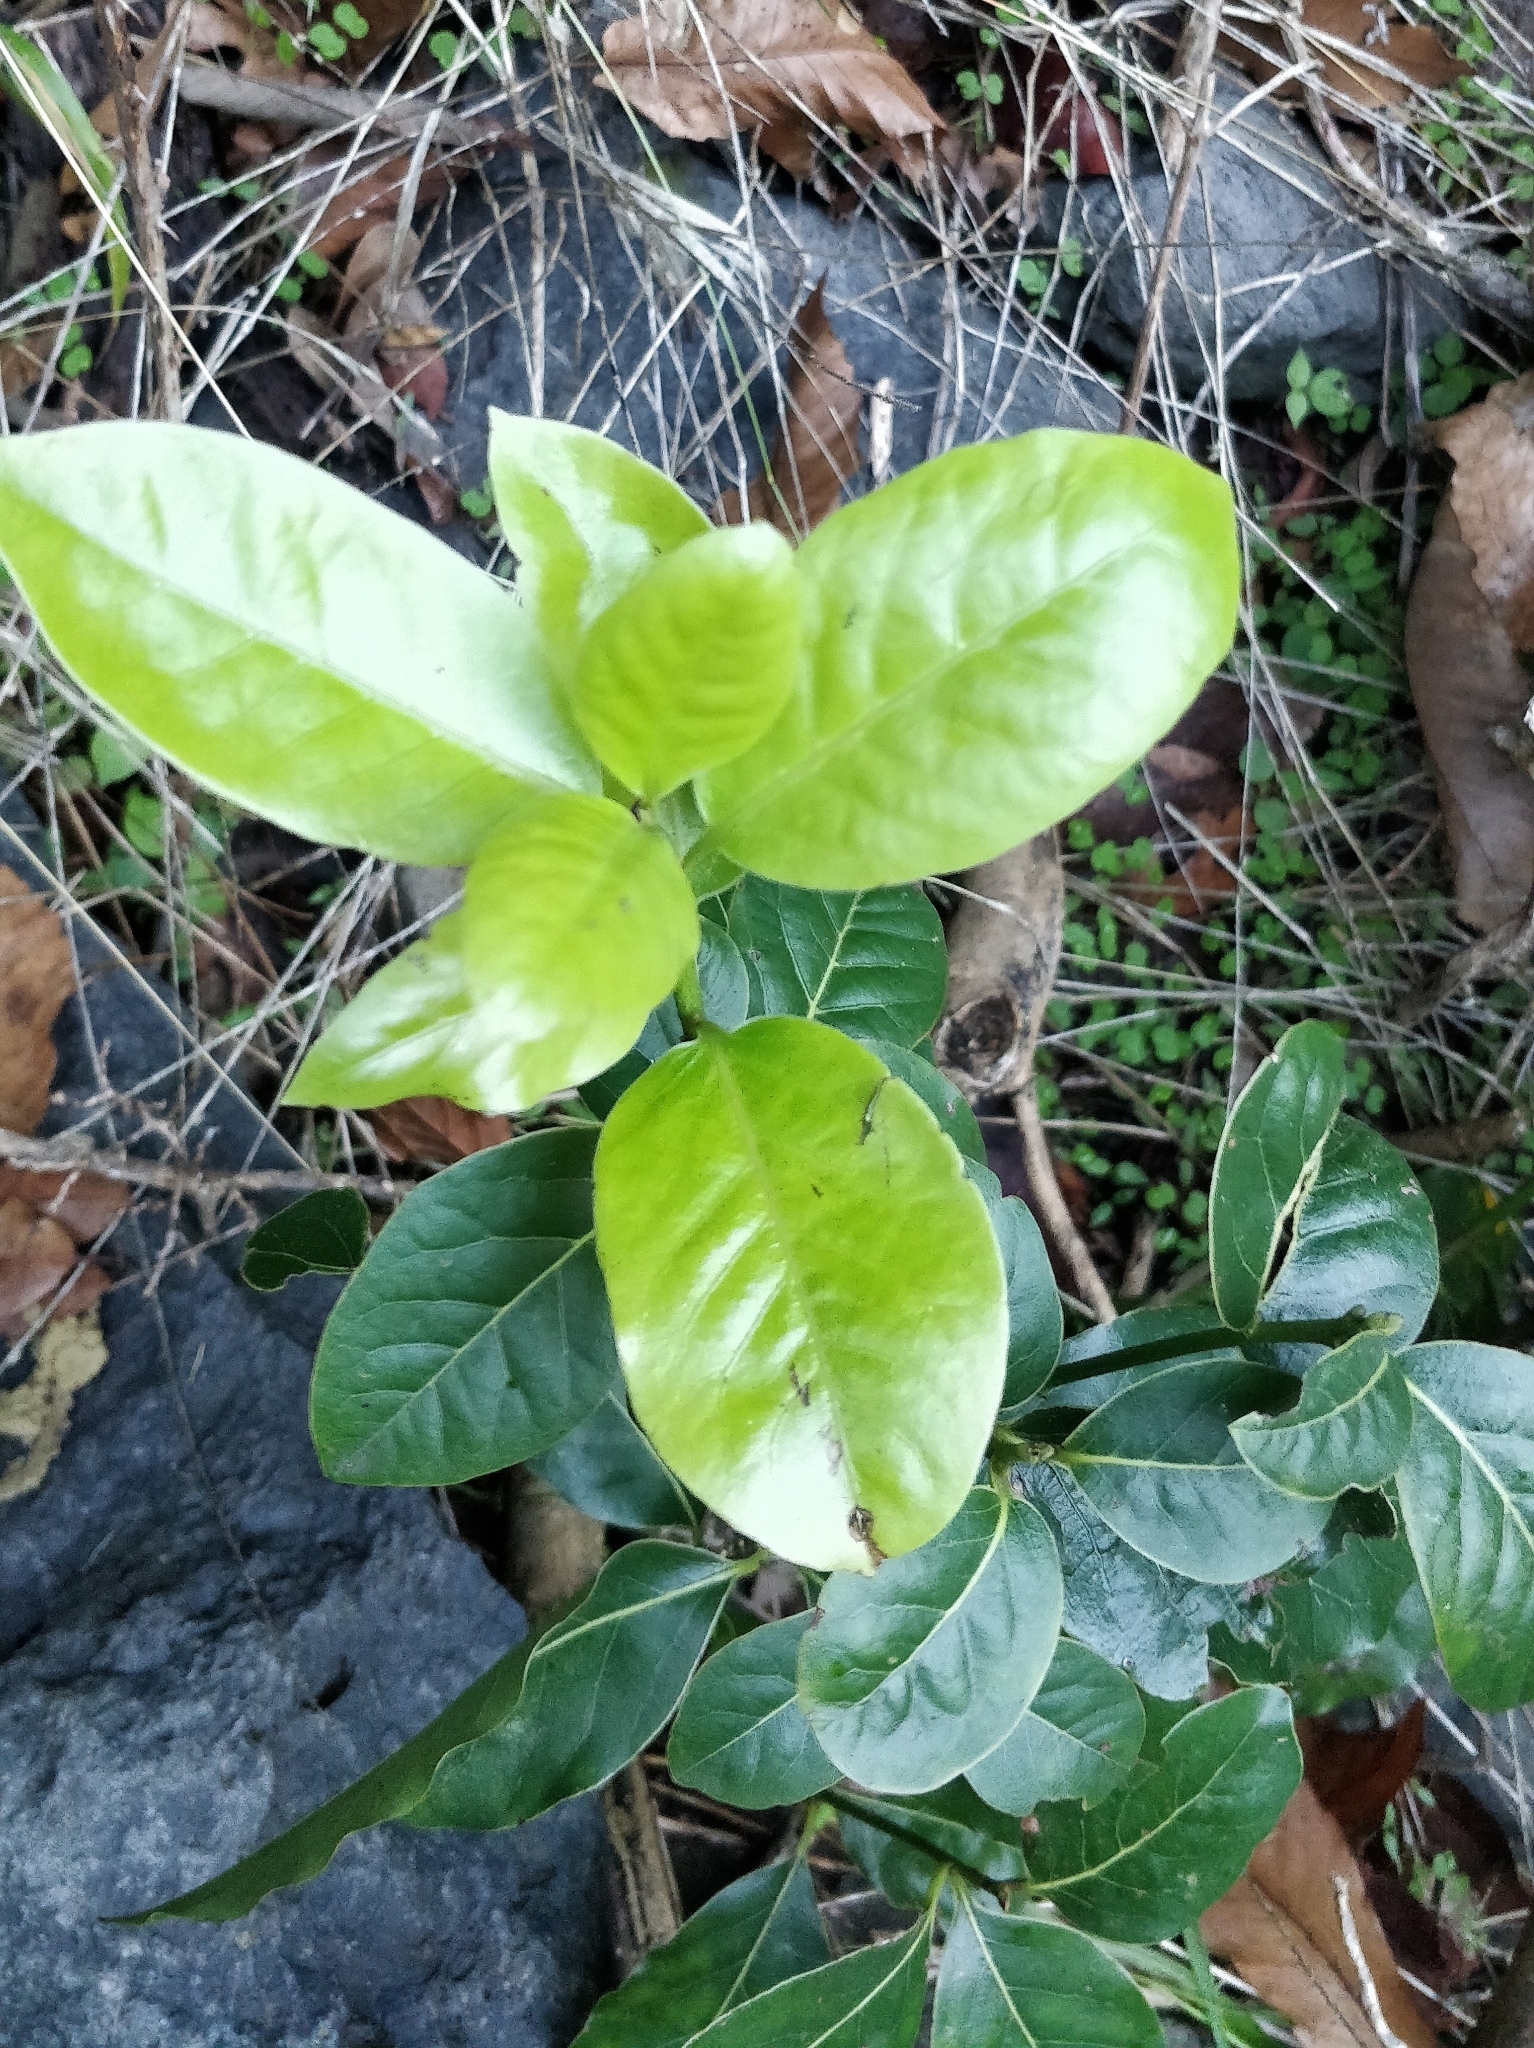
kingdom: Plantae
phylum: Tracheophyta
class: Magnoliopsida
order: Laurales
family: Lauraceae
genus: Laurus
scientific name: Laurus novocanariensis
